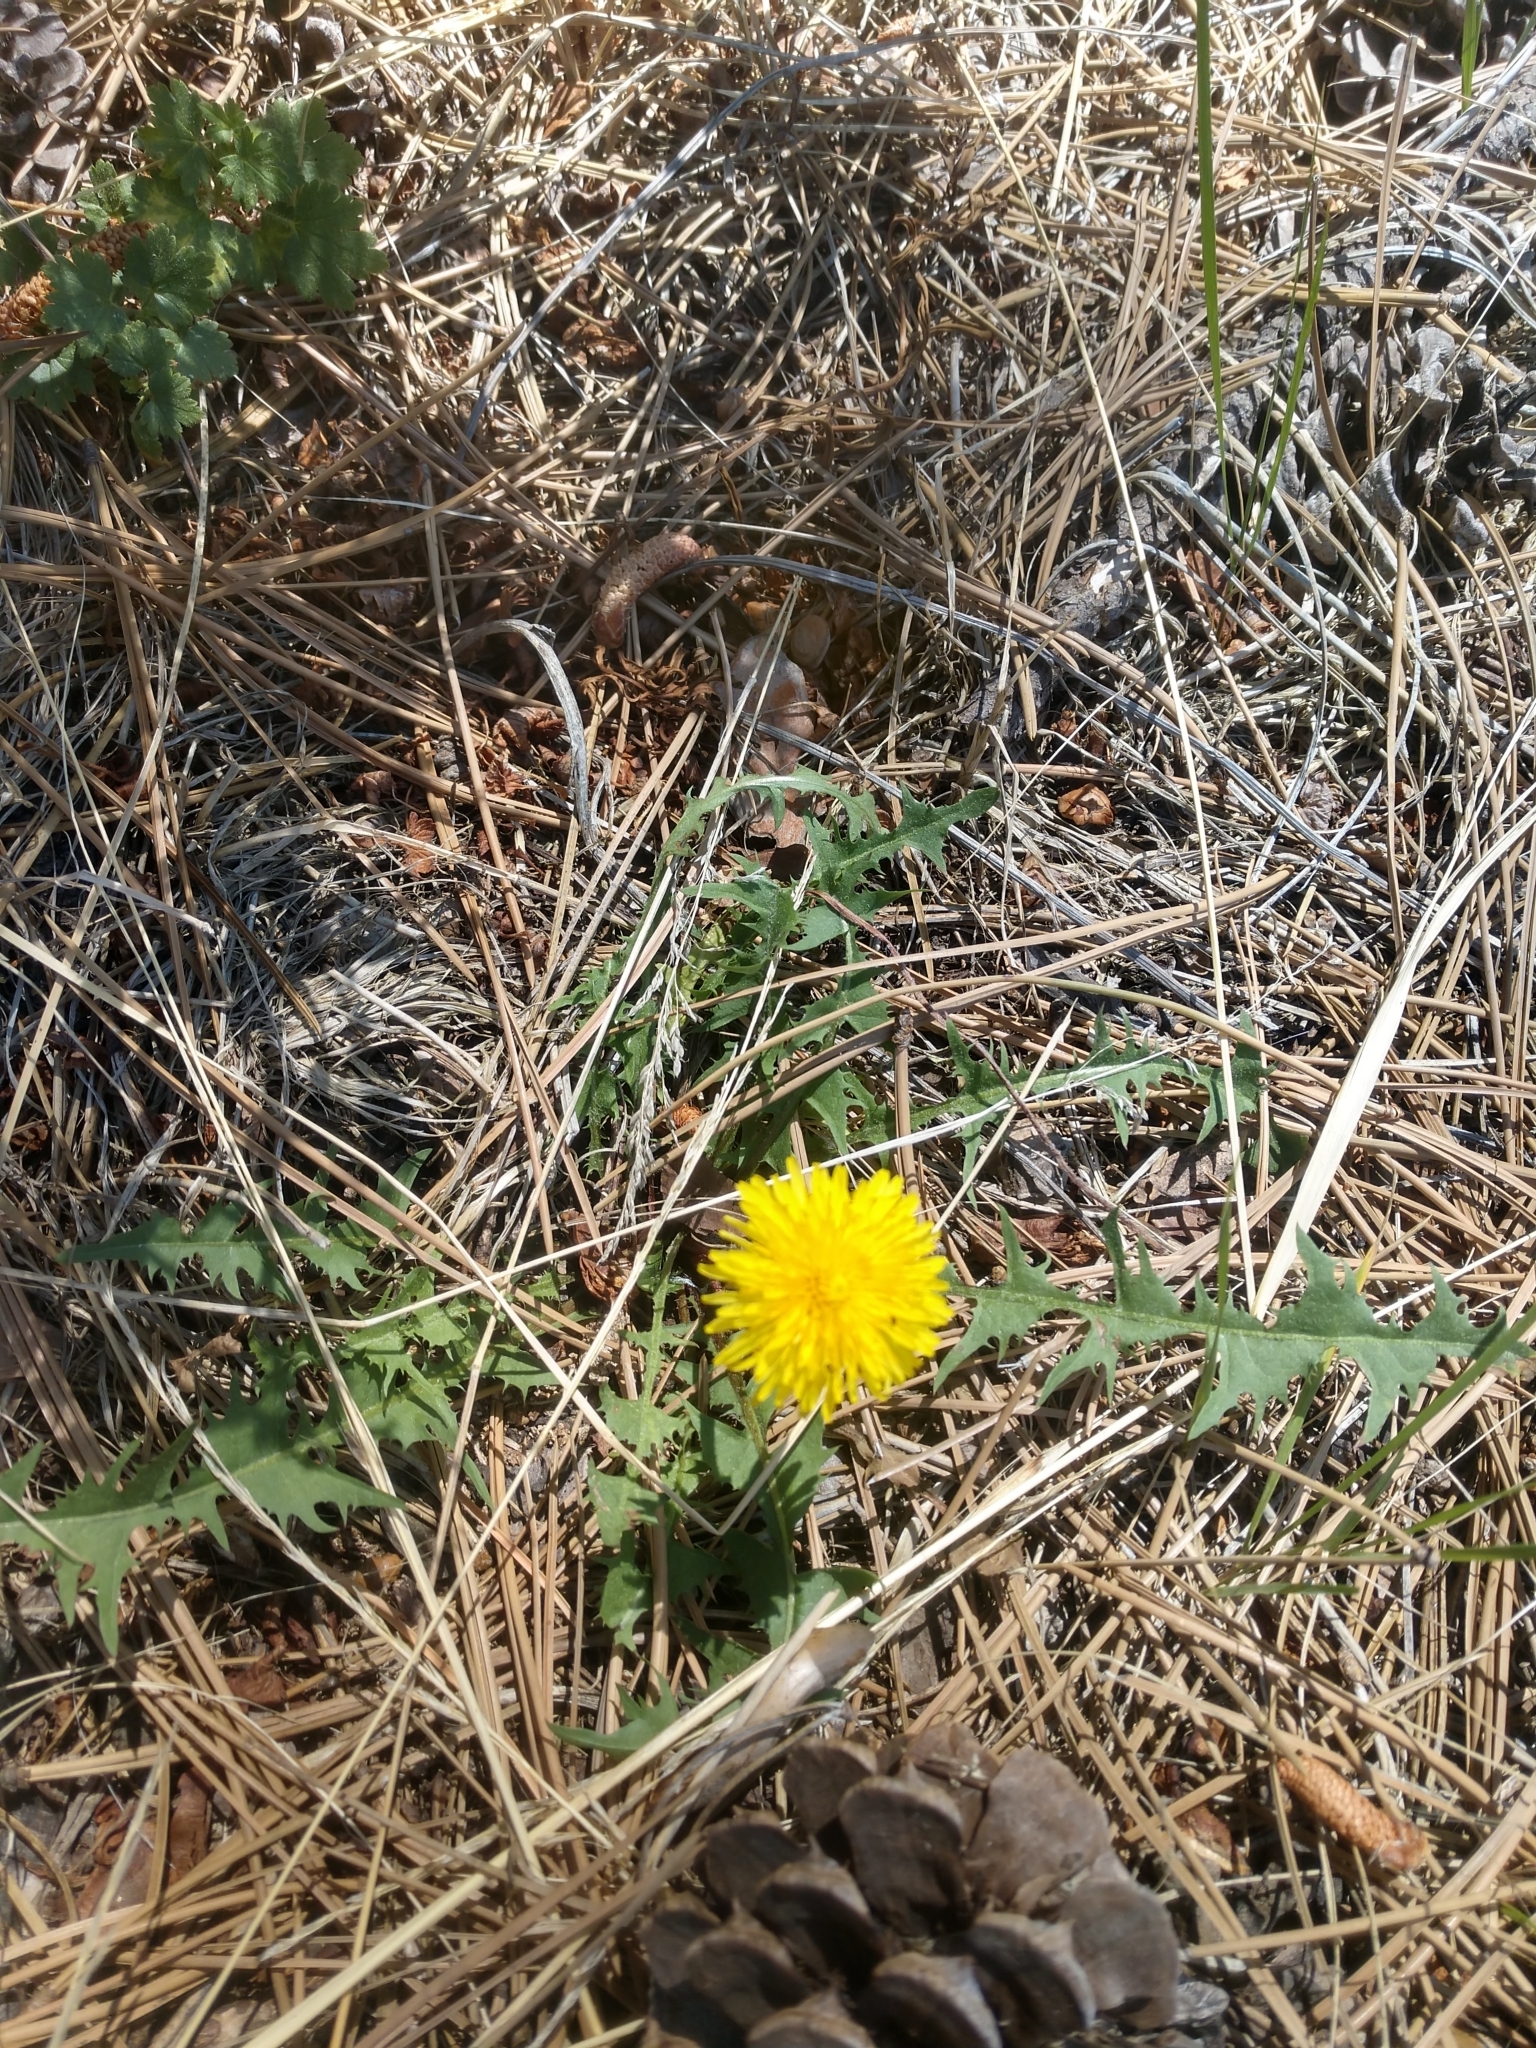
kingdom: Plantae
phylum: Tracheophyta
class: Magnoliopsida
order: Asterales
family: Asteraceae
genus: Taraxacum
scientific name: Taraxacum officinale
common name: Common dandelion
